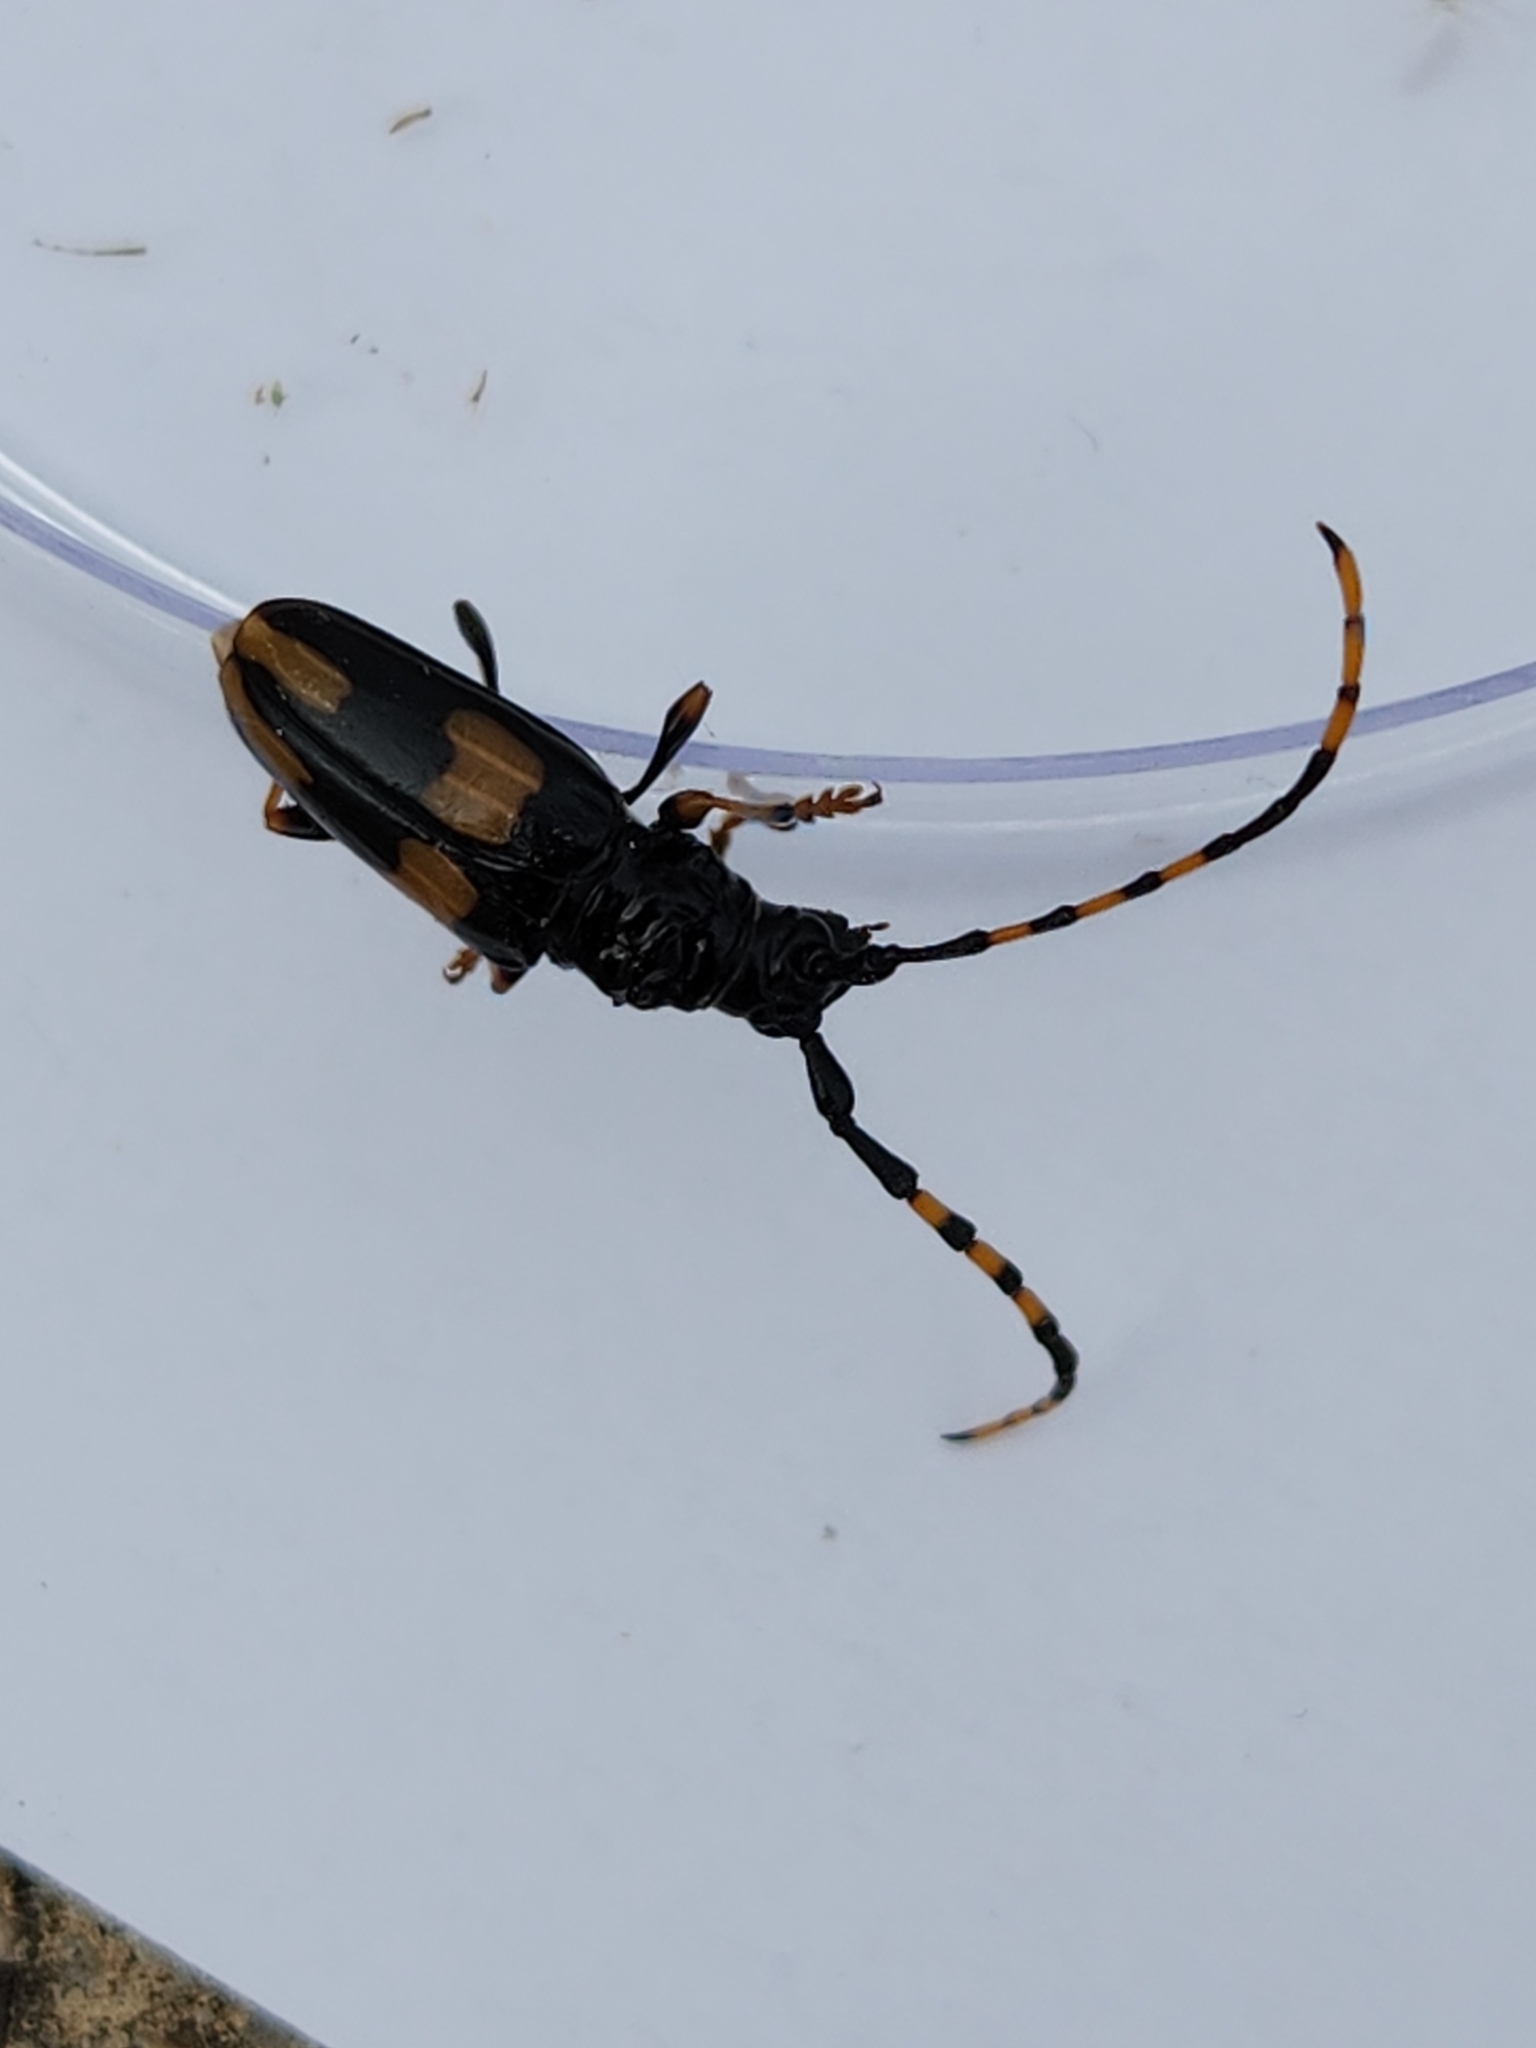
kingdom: Animalia
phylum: Arthropoda
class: Insecta
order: Coleoptera
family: Cerambycidae
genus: Trachyderes
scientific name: Trachyderes mandibularis
